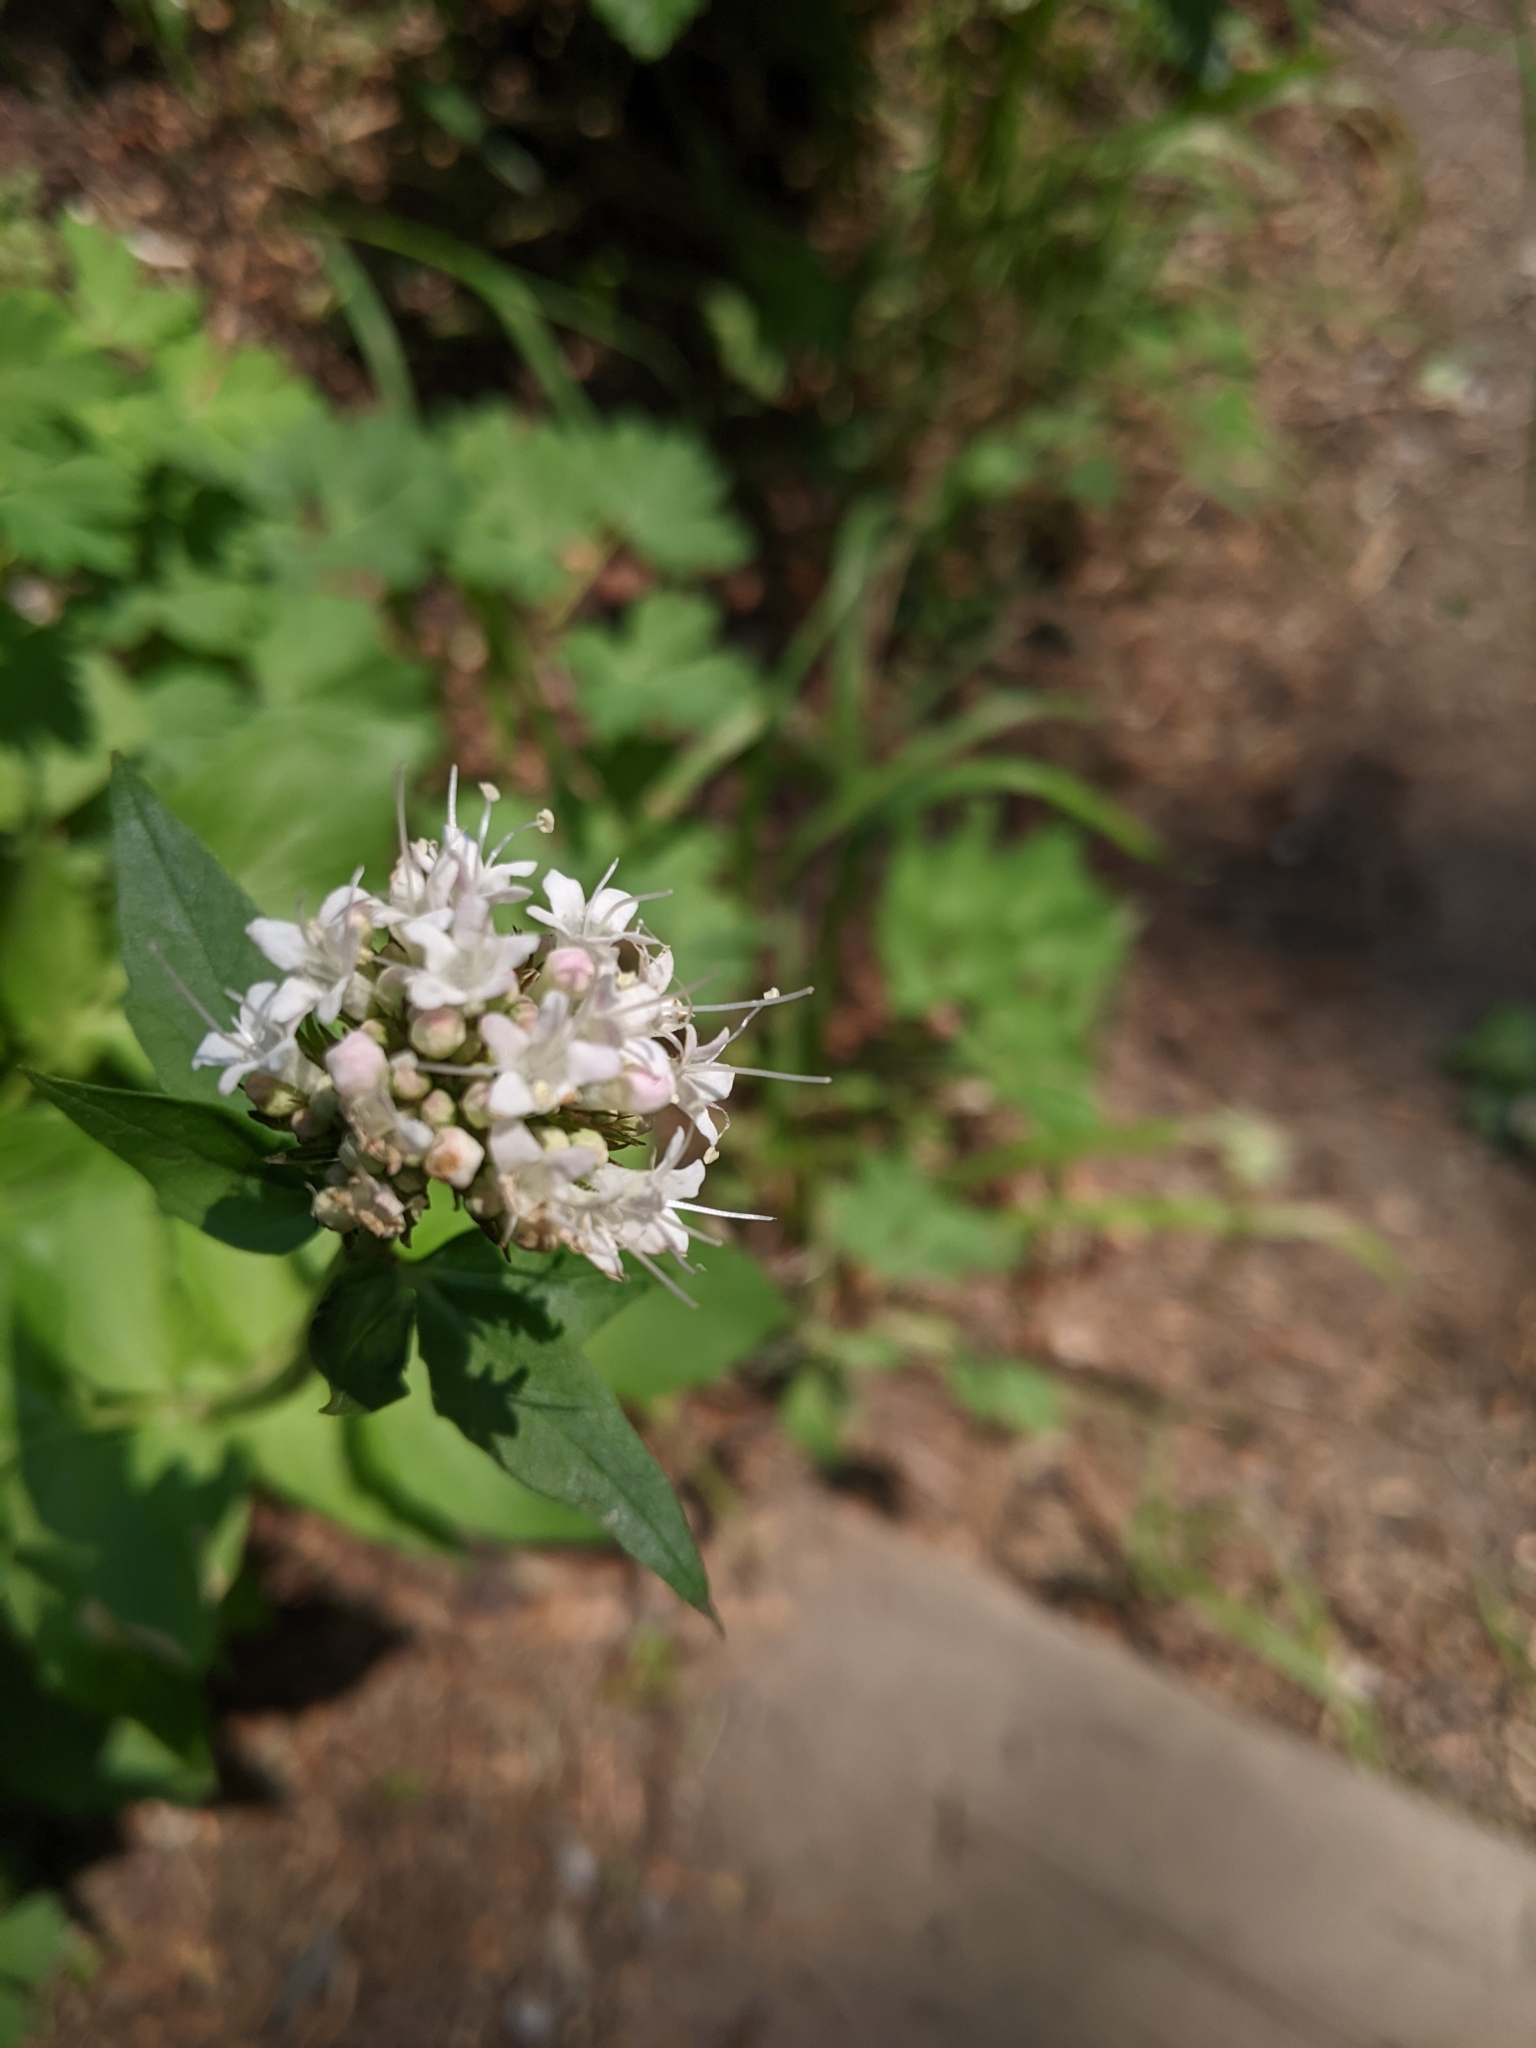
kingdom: Plantae
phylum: Tracheophyta
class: Magnoliopsida
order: Dipsacales
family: Caprifoliaceae
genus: Valeriana
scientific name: Valeriana sitchensis
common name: Pacific valerian
